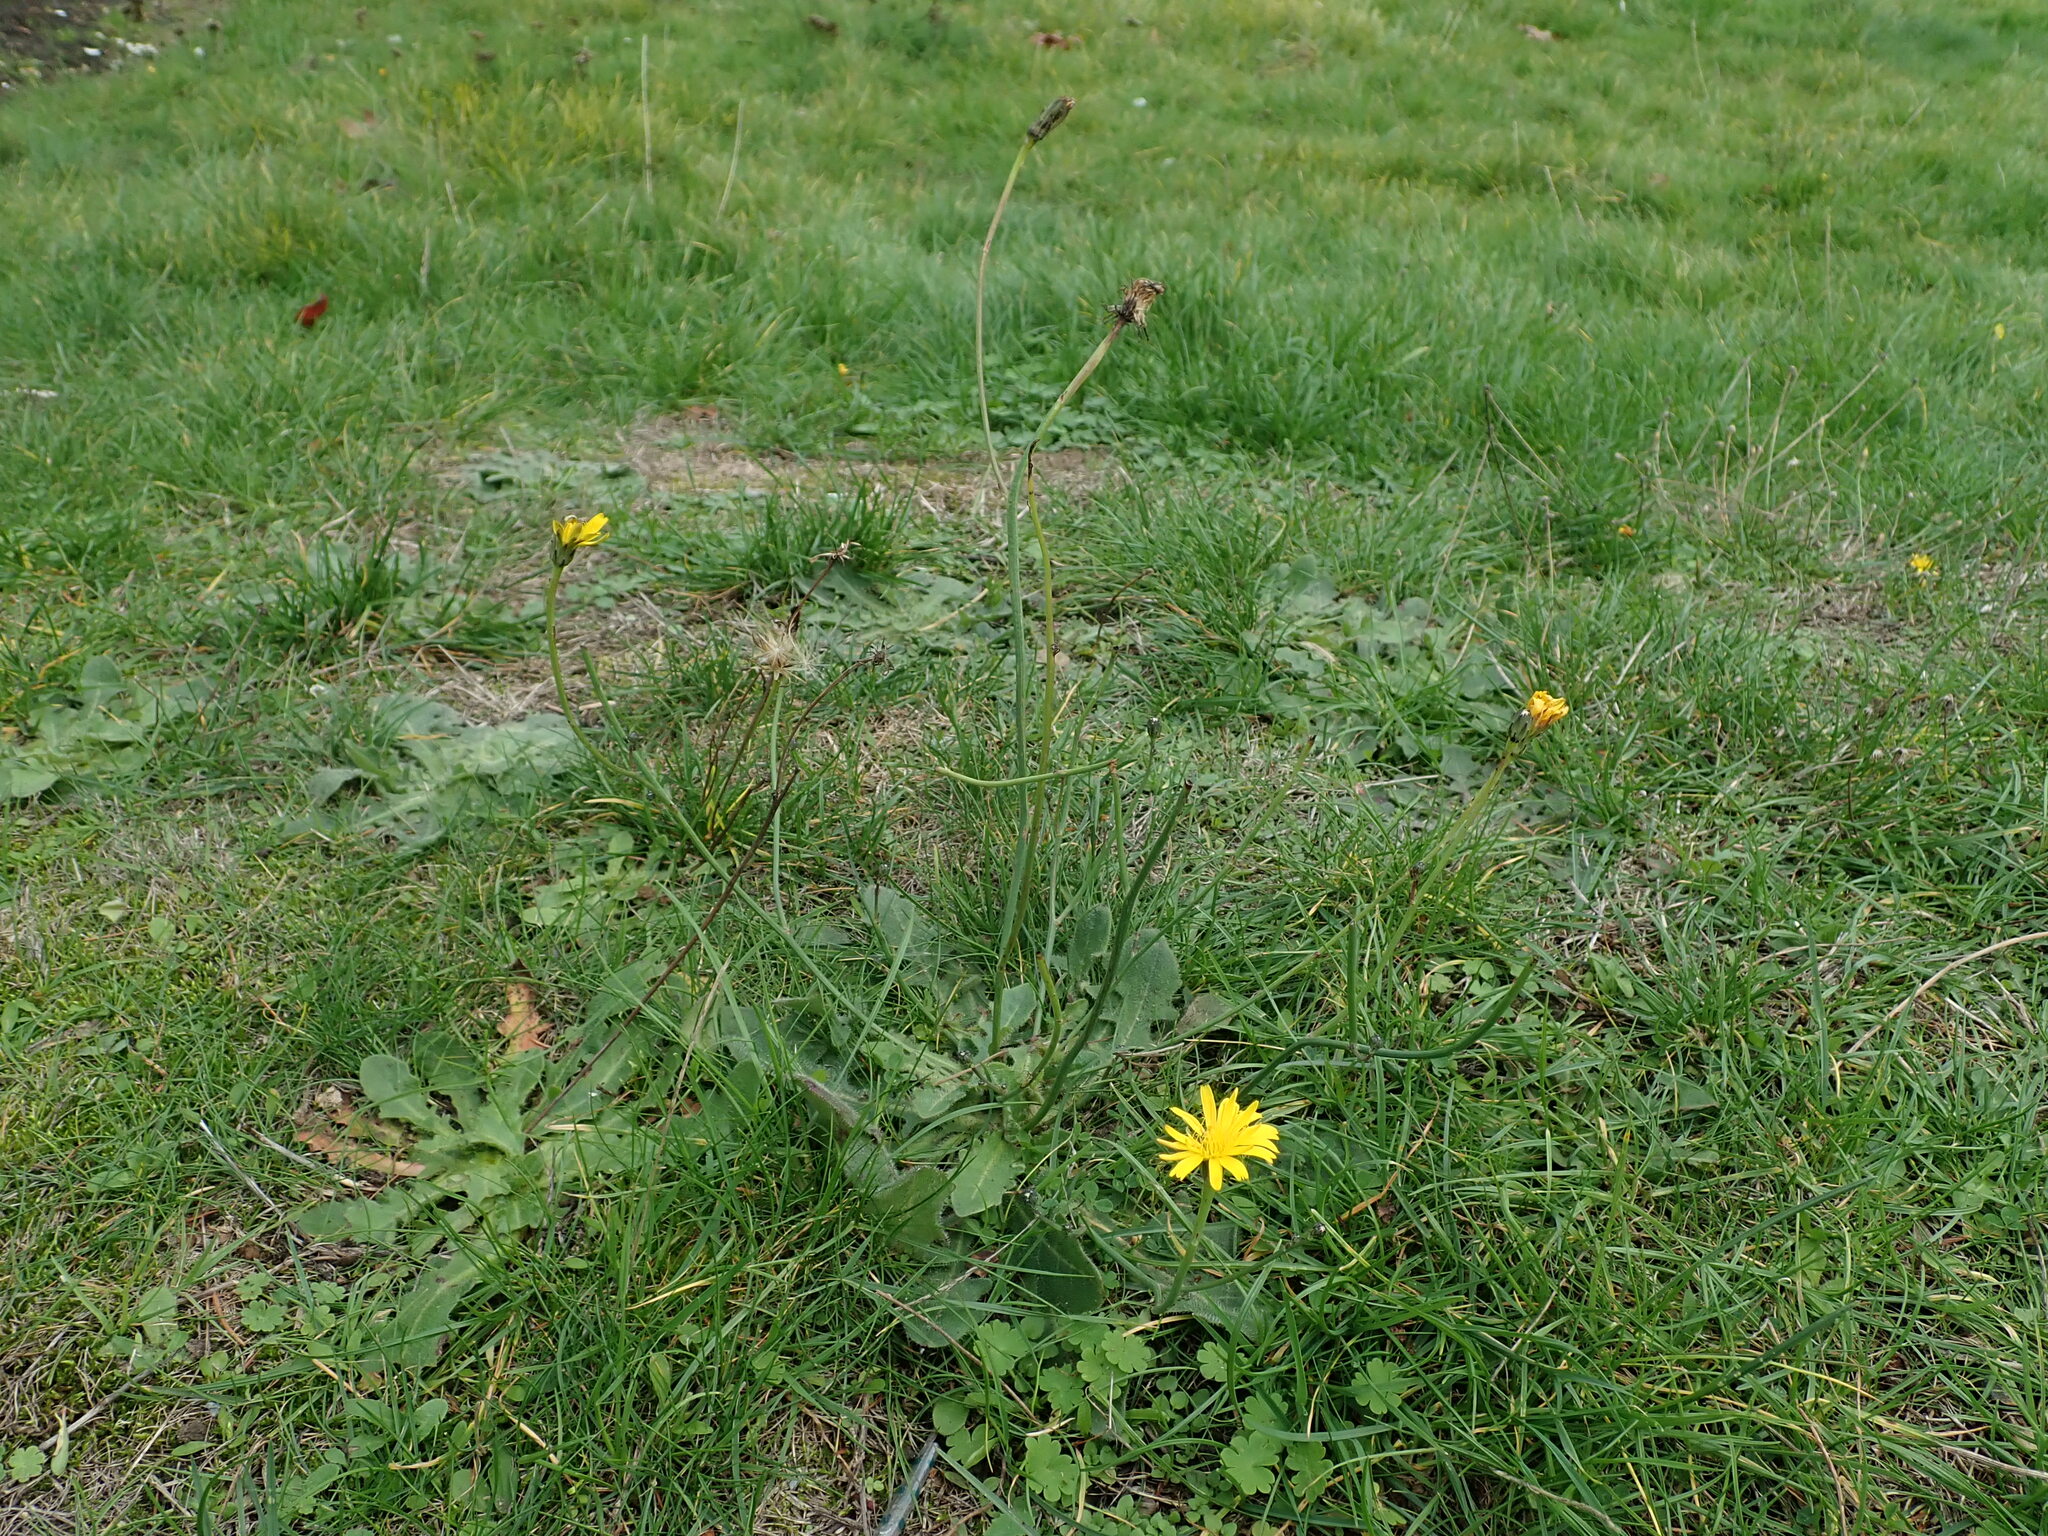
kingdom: Plantae
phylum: Tracheophyta
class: Magnoliopsida
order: Asterales
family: Asteraceae
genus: Hypochaeris
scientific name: Hypochaeris radicata
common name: Flatweed
